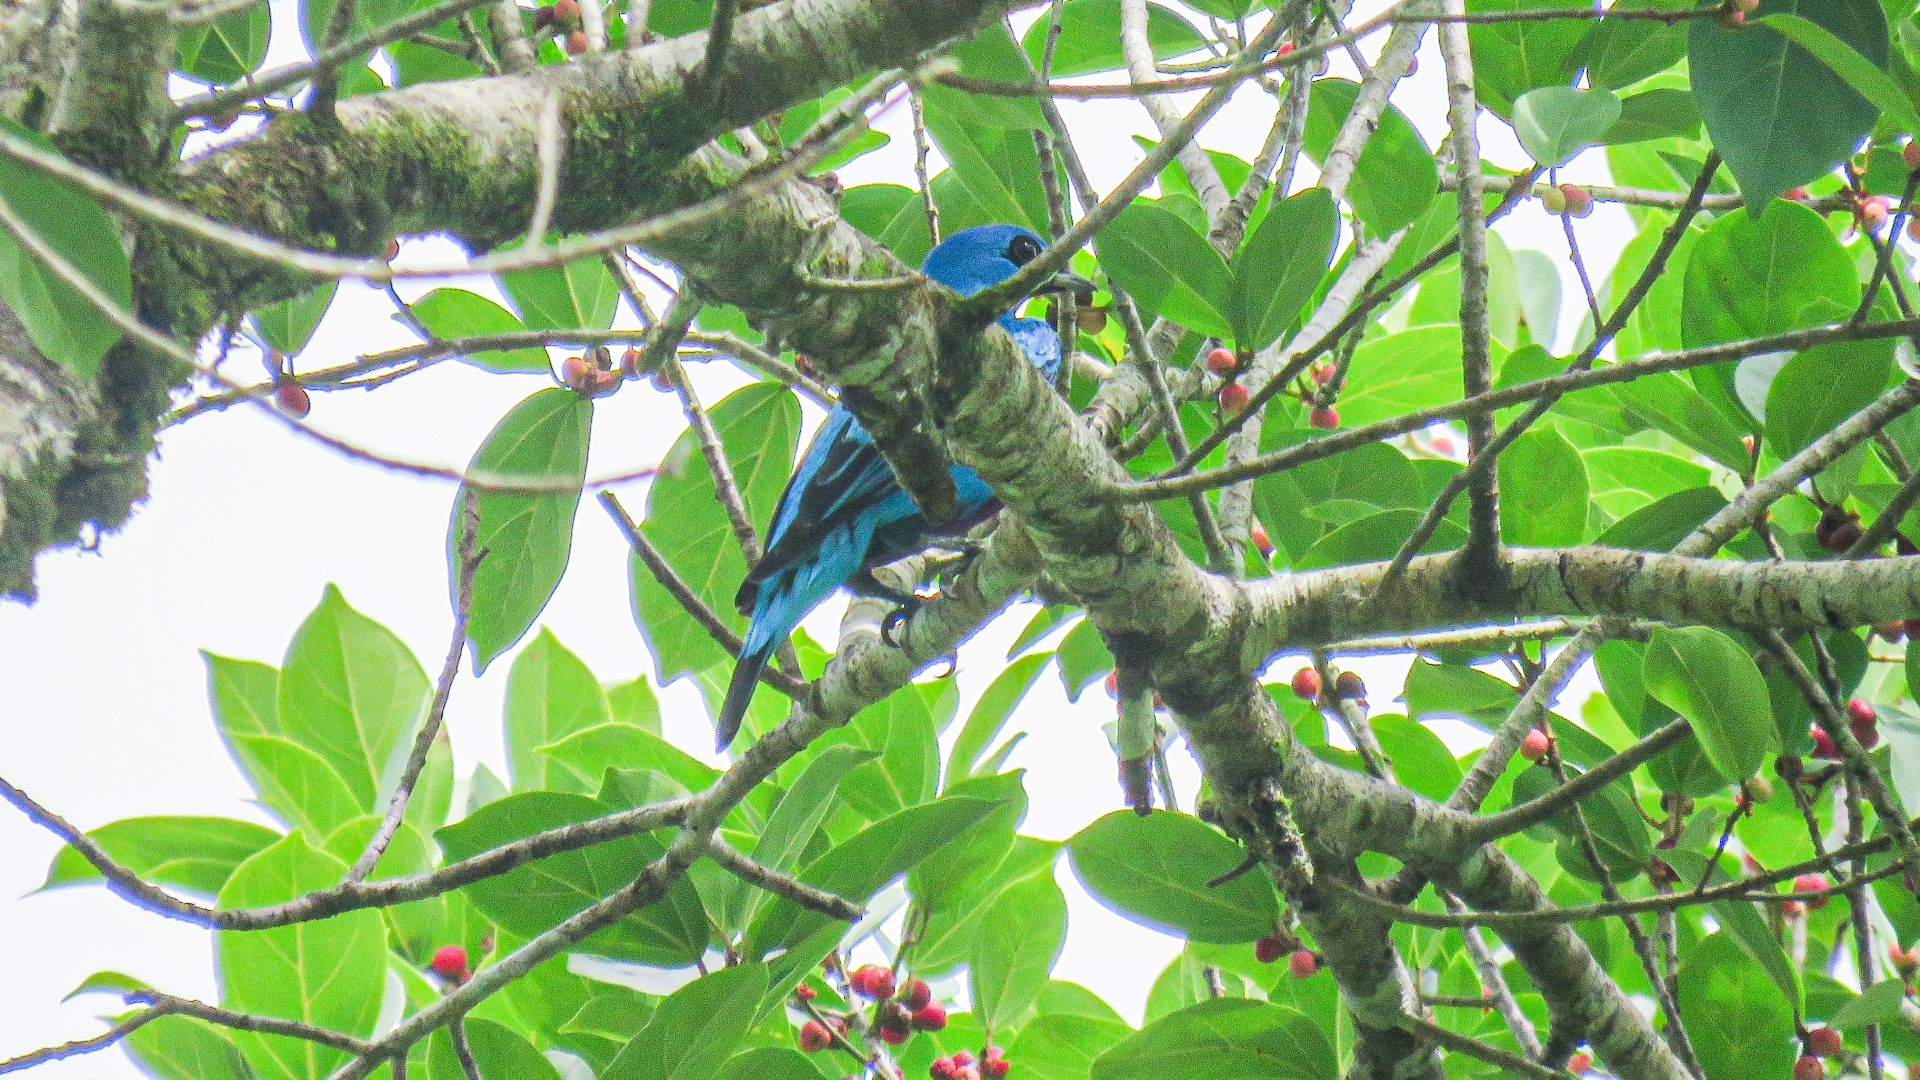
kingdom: Animalia
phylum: Chordata
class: Aves
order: Passeriformes
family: Cotingidae
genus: Cotinga
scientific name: Cotinga nattererii
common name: Blue cotinga
